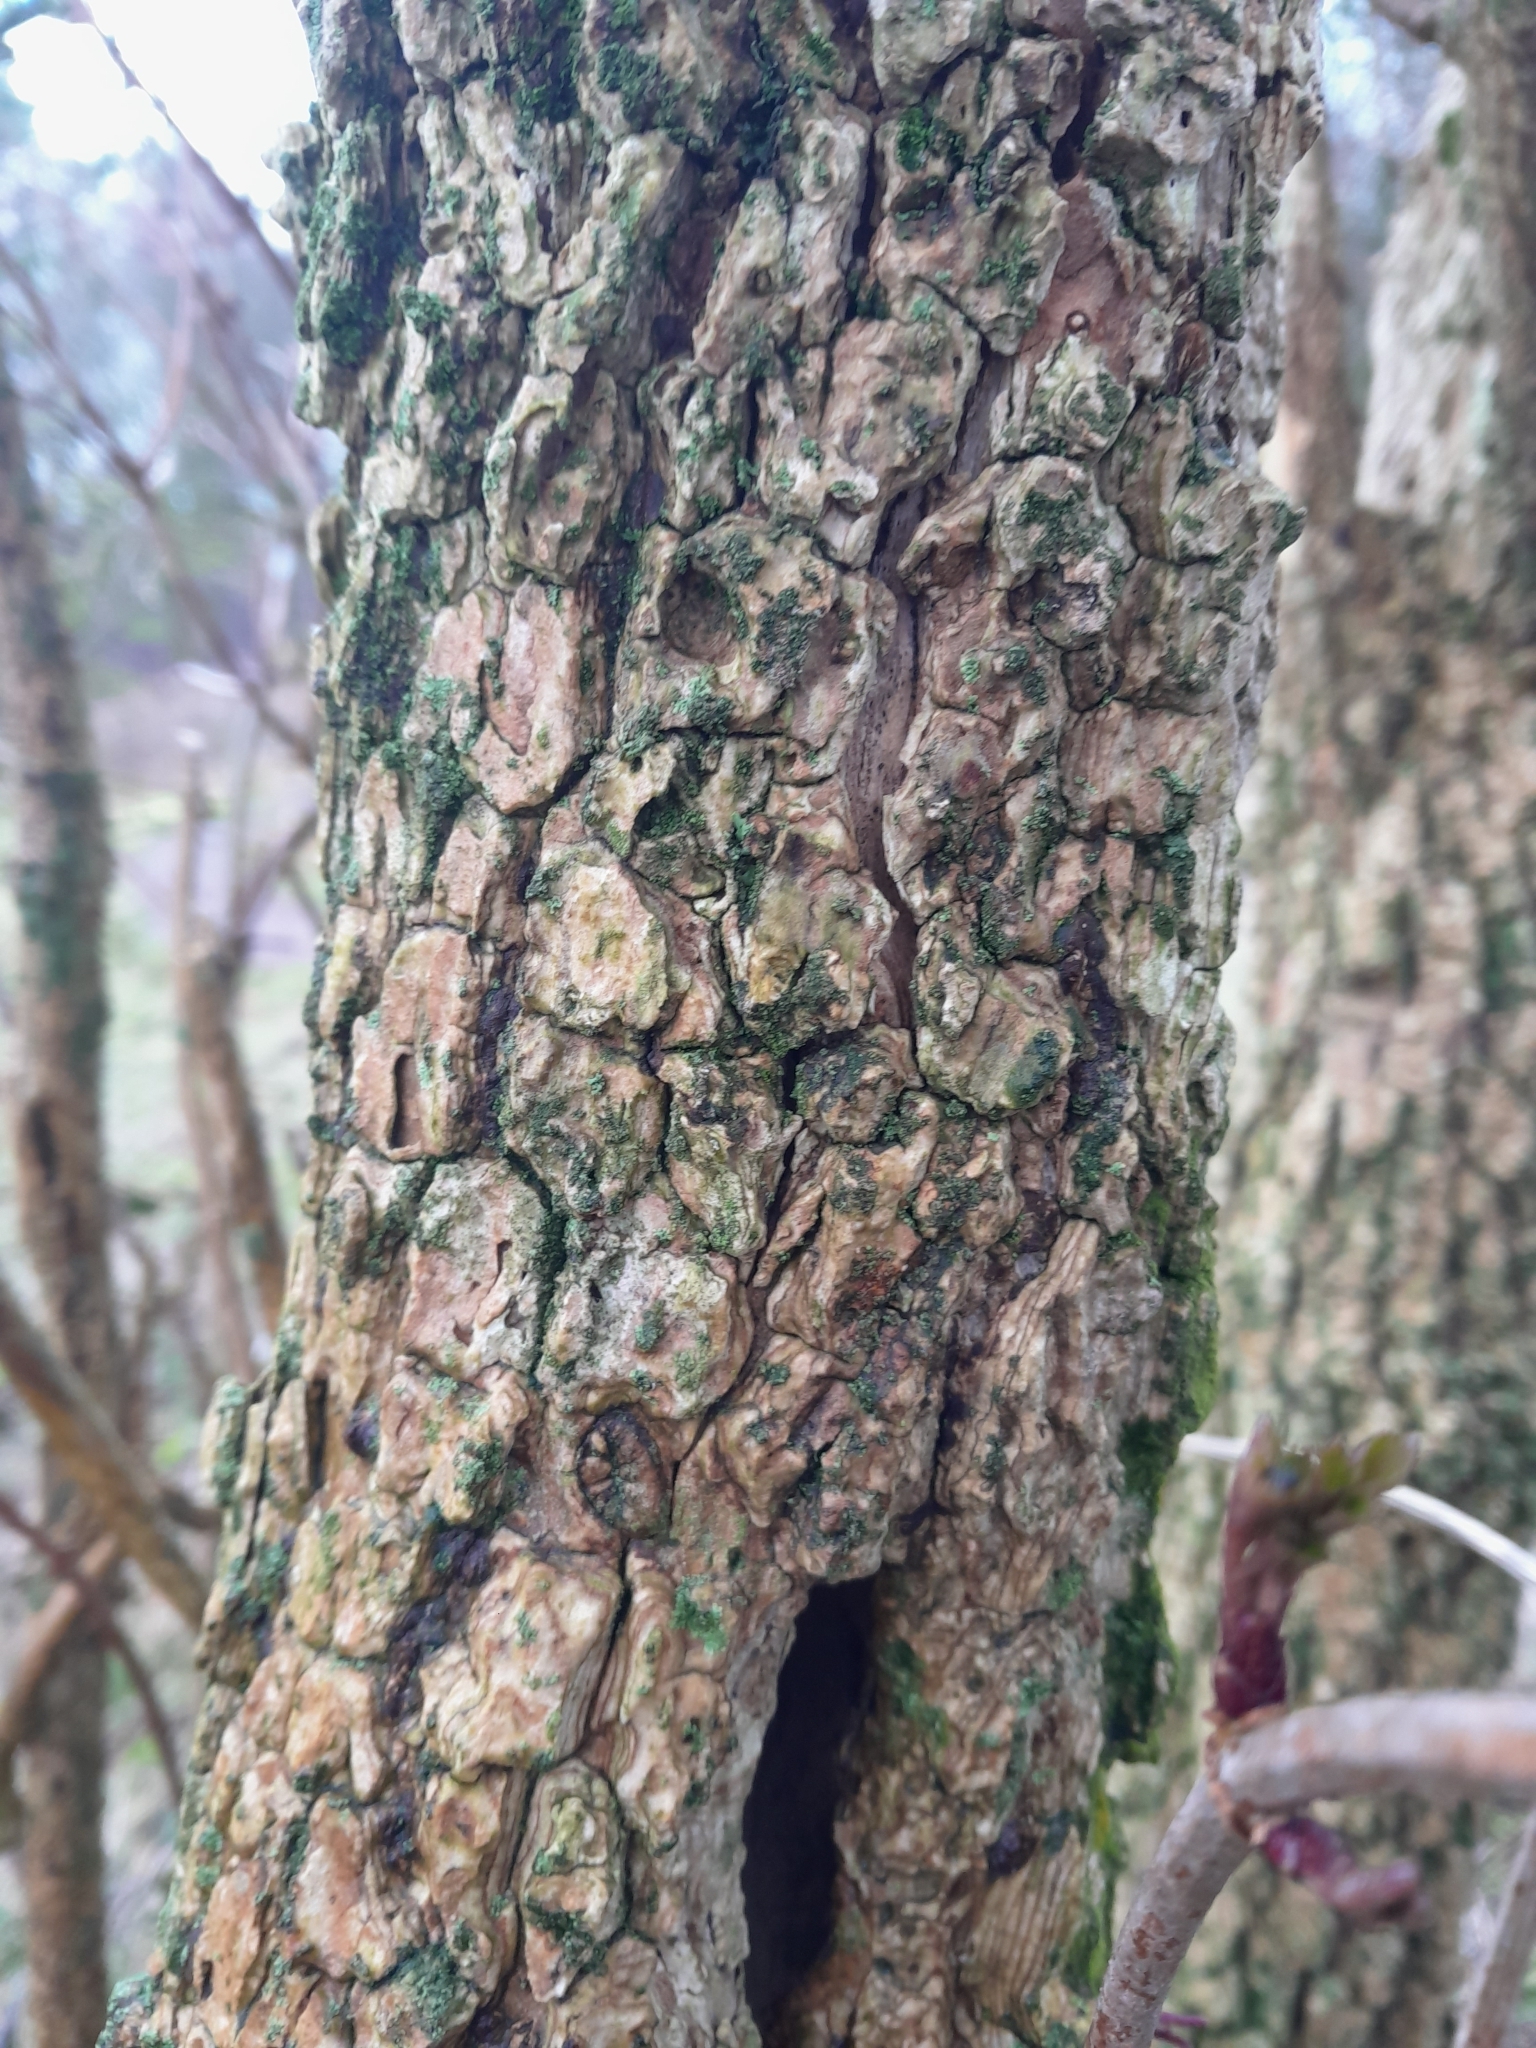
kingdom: Plantae
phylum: Tracheophyta
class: Magnoliopsida
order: Dipsacales
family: Viburnaceae
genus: Sambucus
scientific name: Sambucus nigra
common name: Elder
